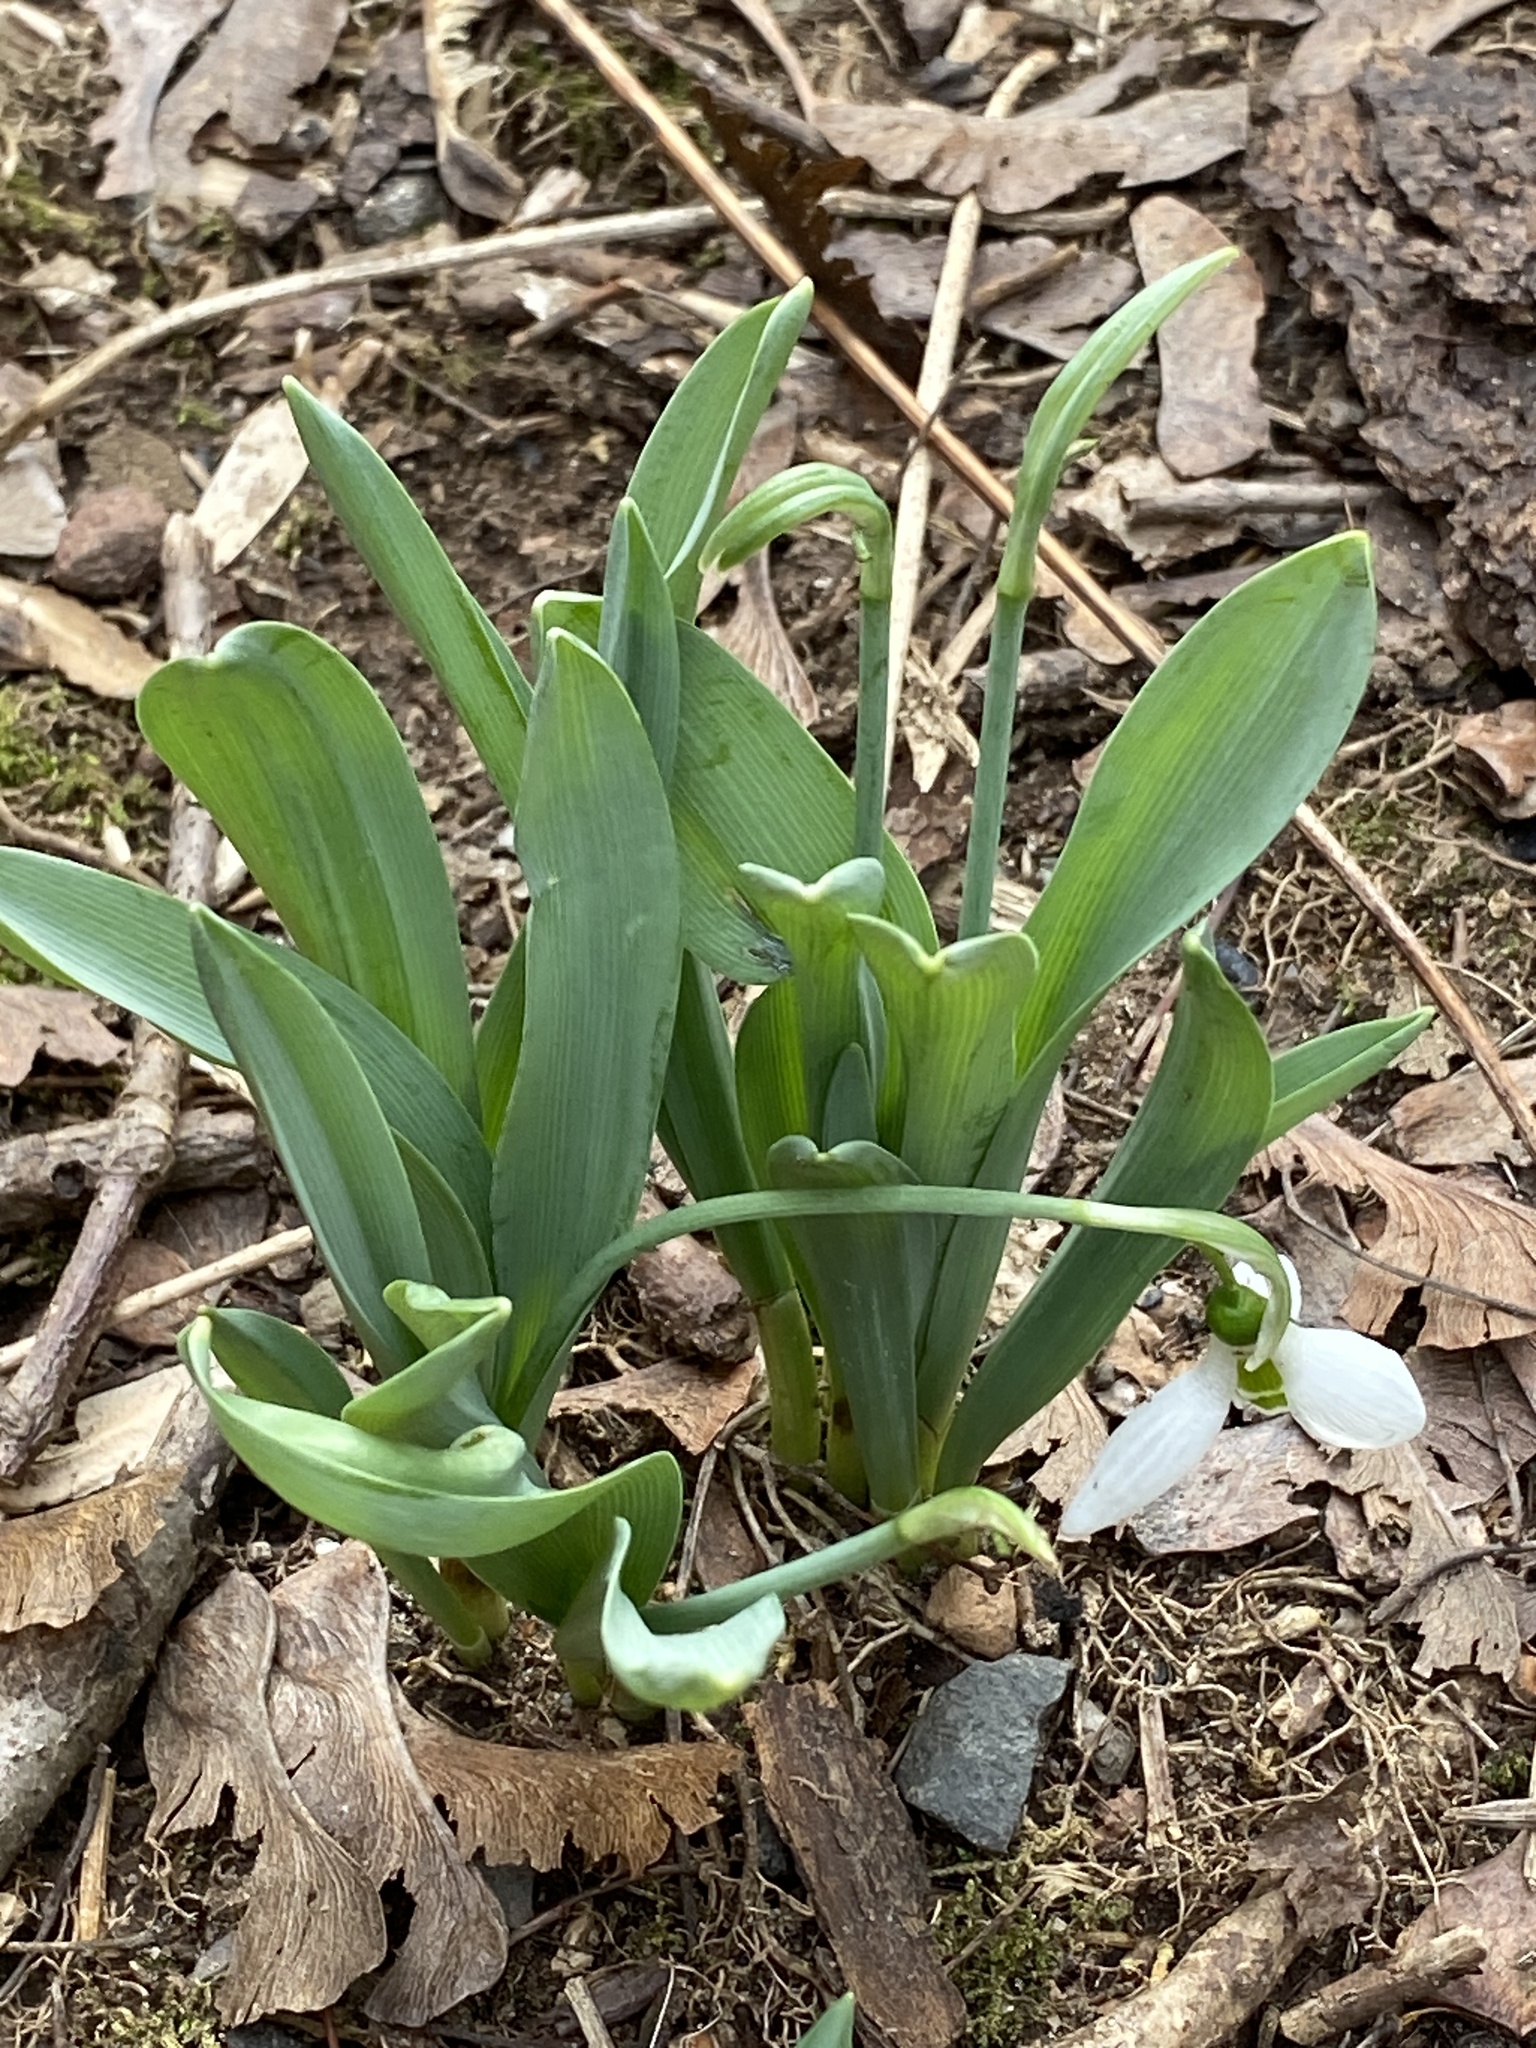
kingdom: Plantae
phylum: Tracheophyta
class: Liliopsida
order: Asparagales
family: Amaryllidaceae
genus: Galanthus
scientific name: Galanthus elwesii
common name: Greater snowdrop
